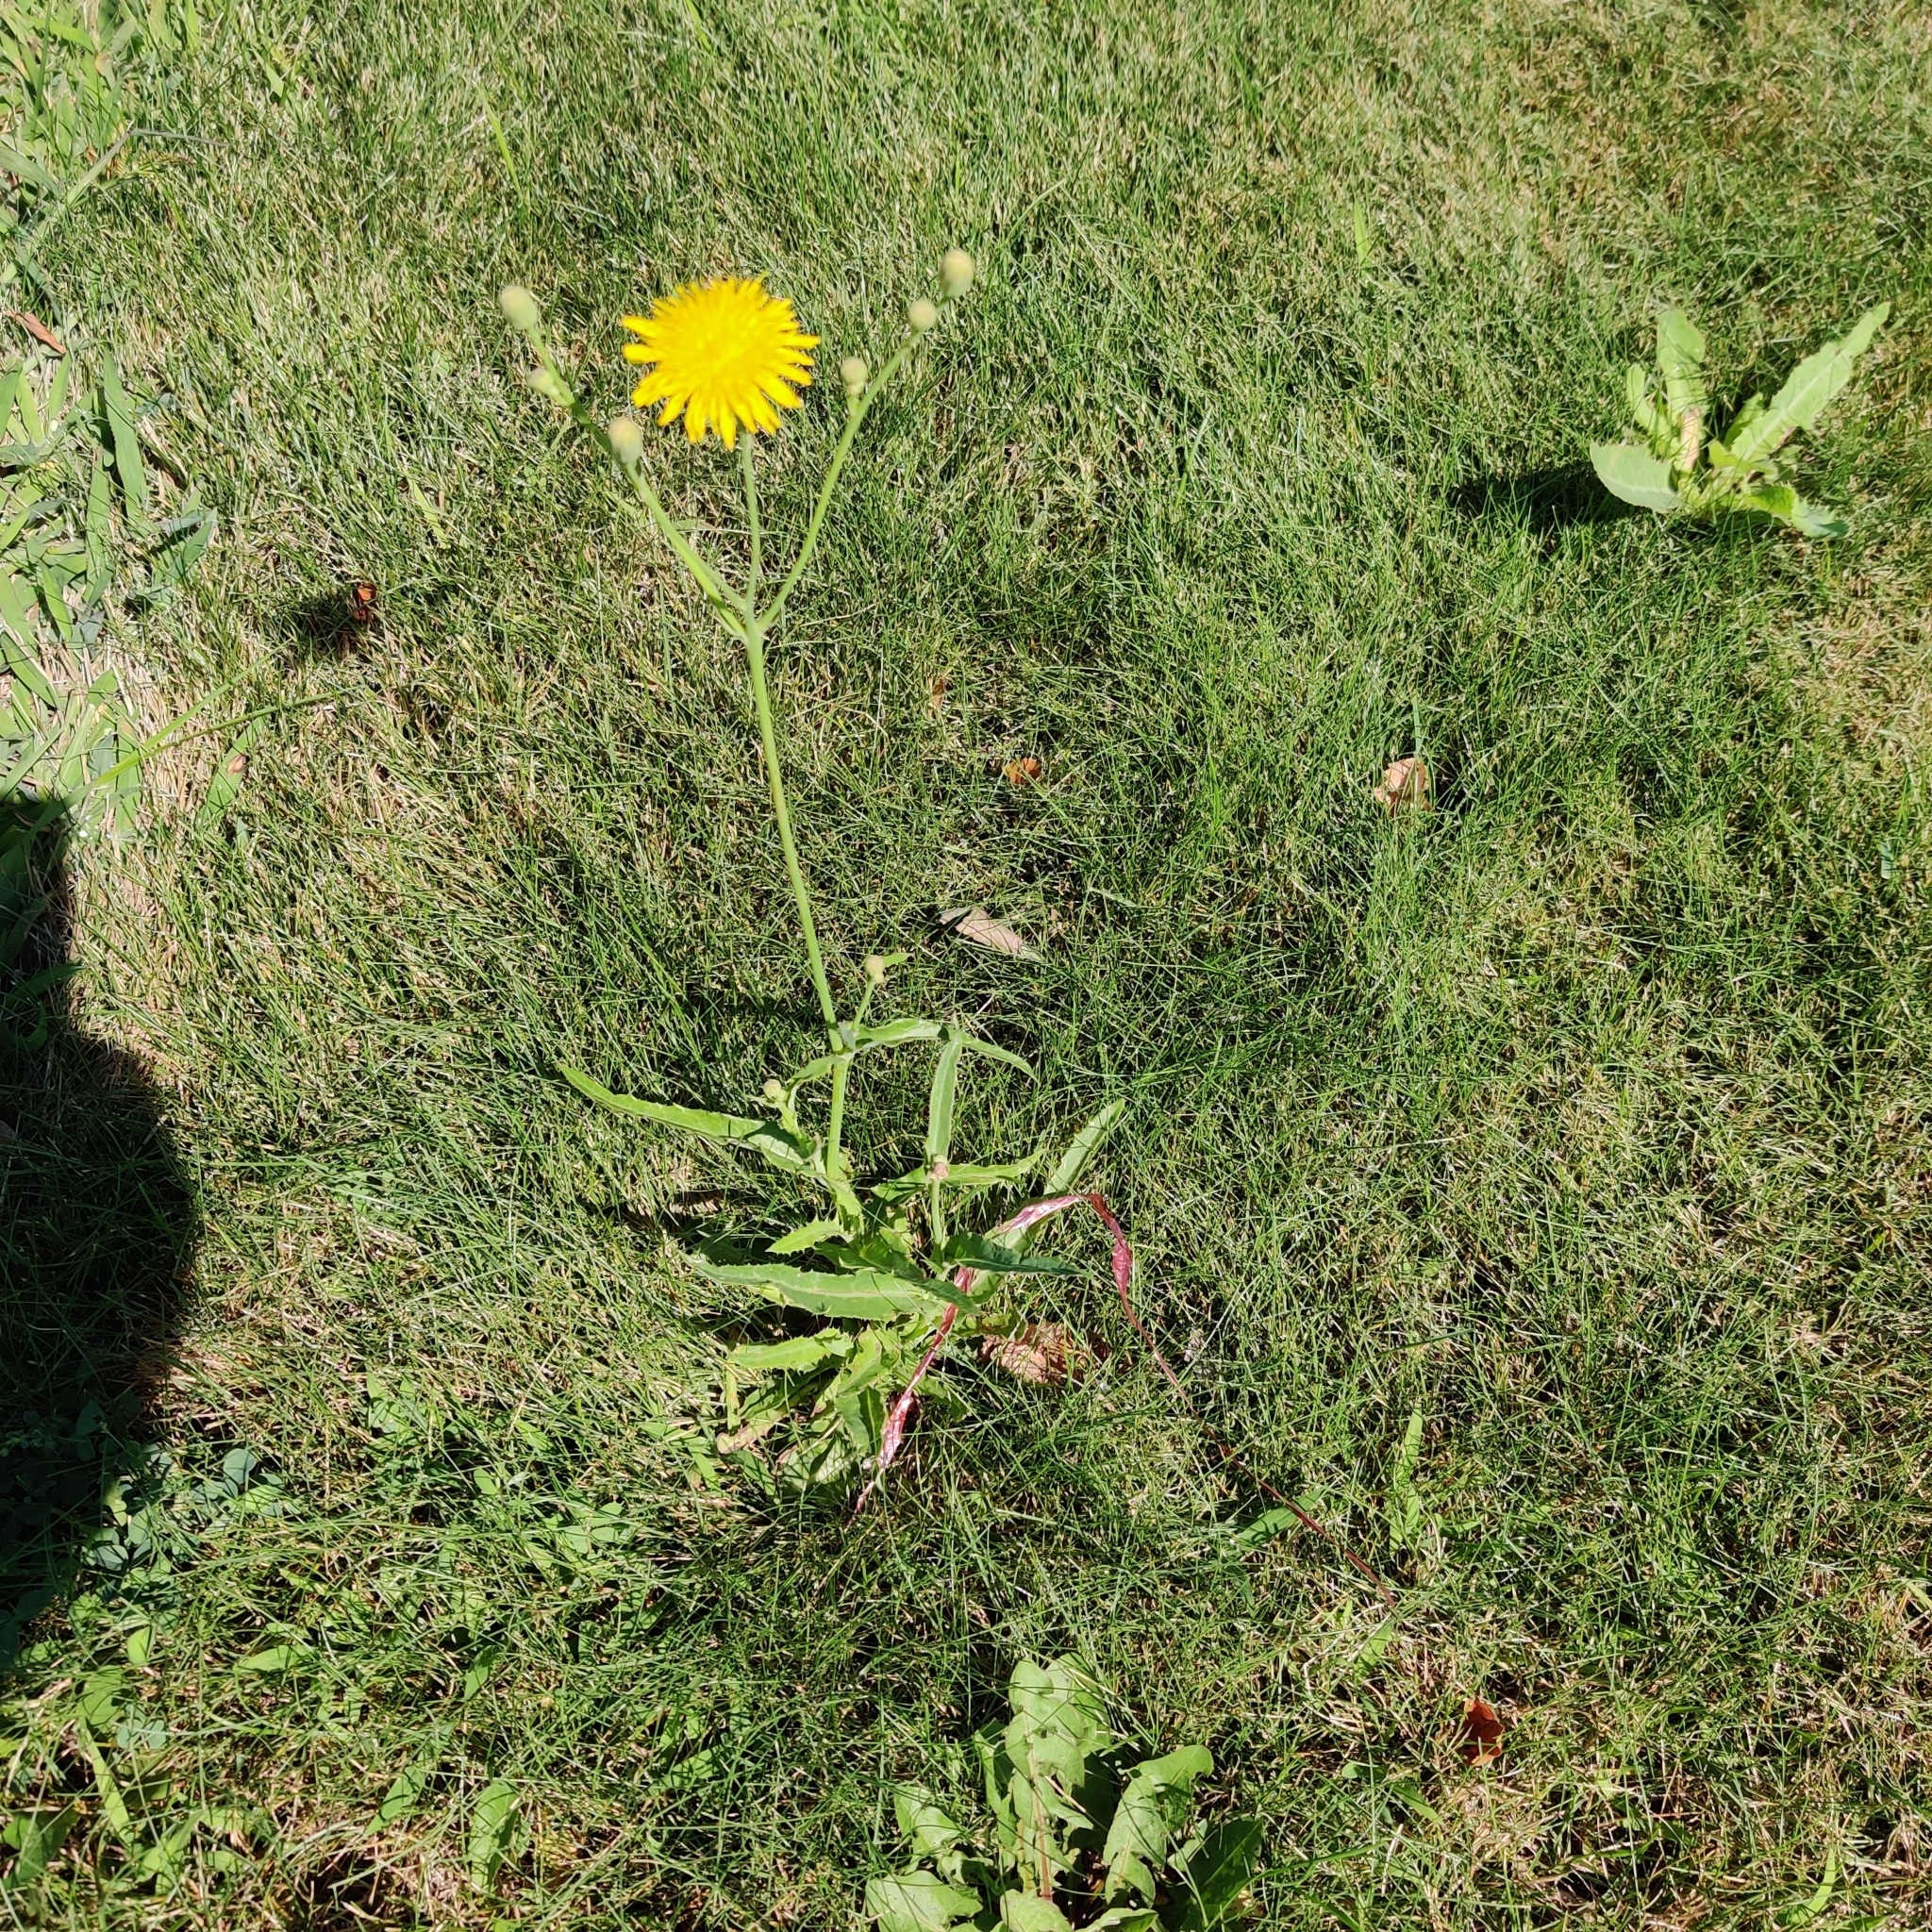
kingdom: Plantae
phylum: Tracheophyta
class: Magnoliopsida
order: Asterales
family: Asteraceae
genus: Sonchus
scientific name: Sonchus arvensis
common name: Perennial sow-thistle
